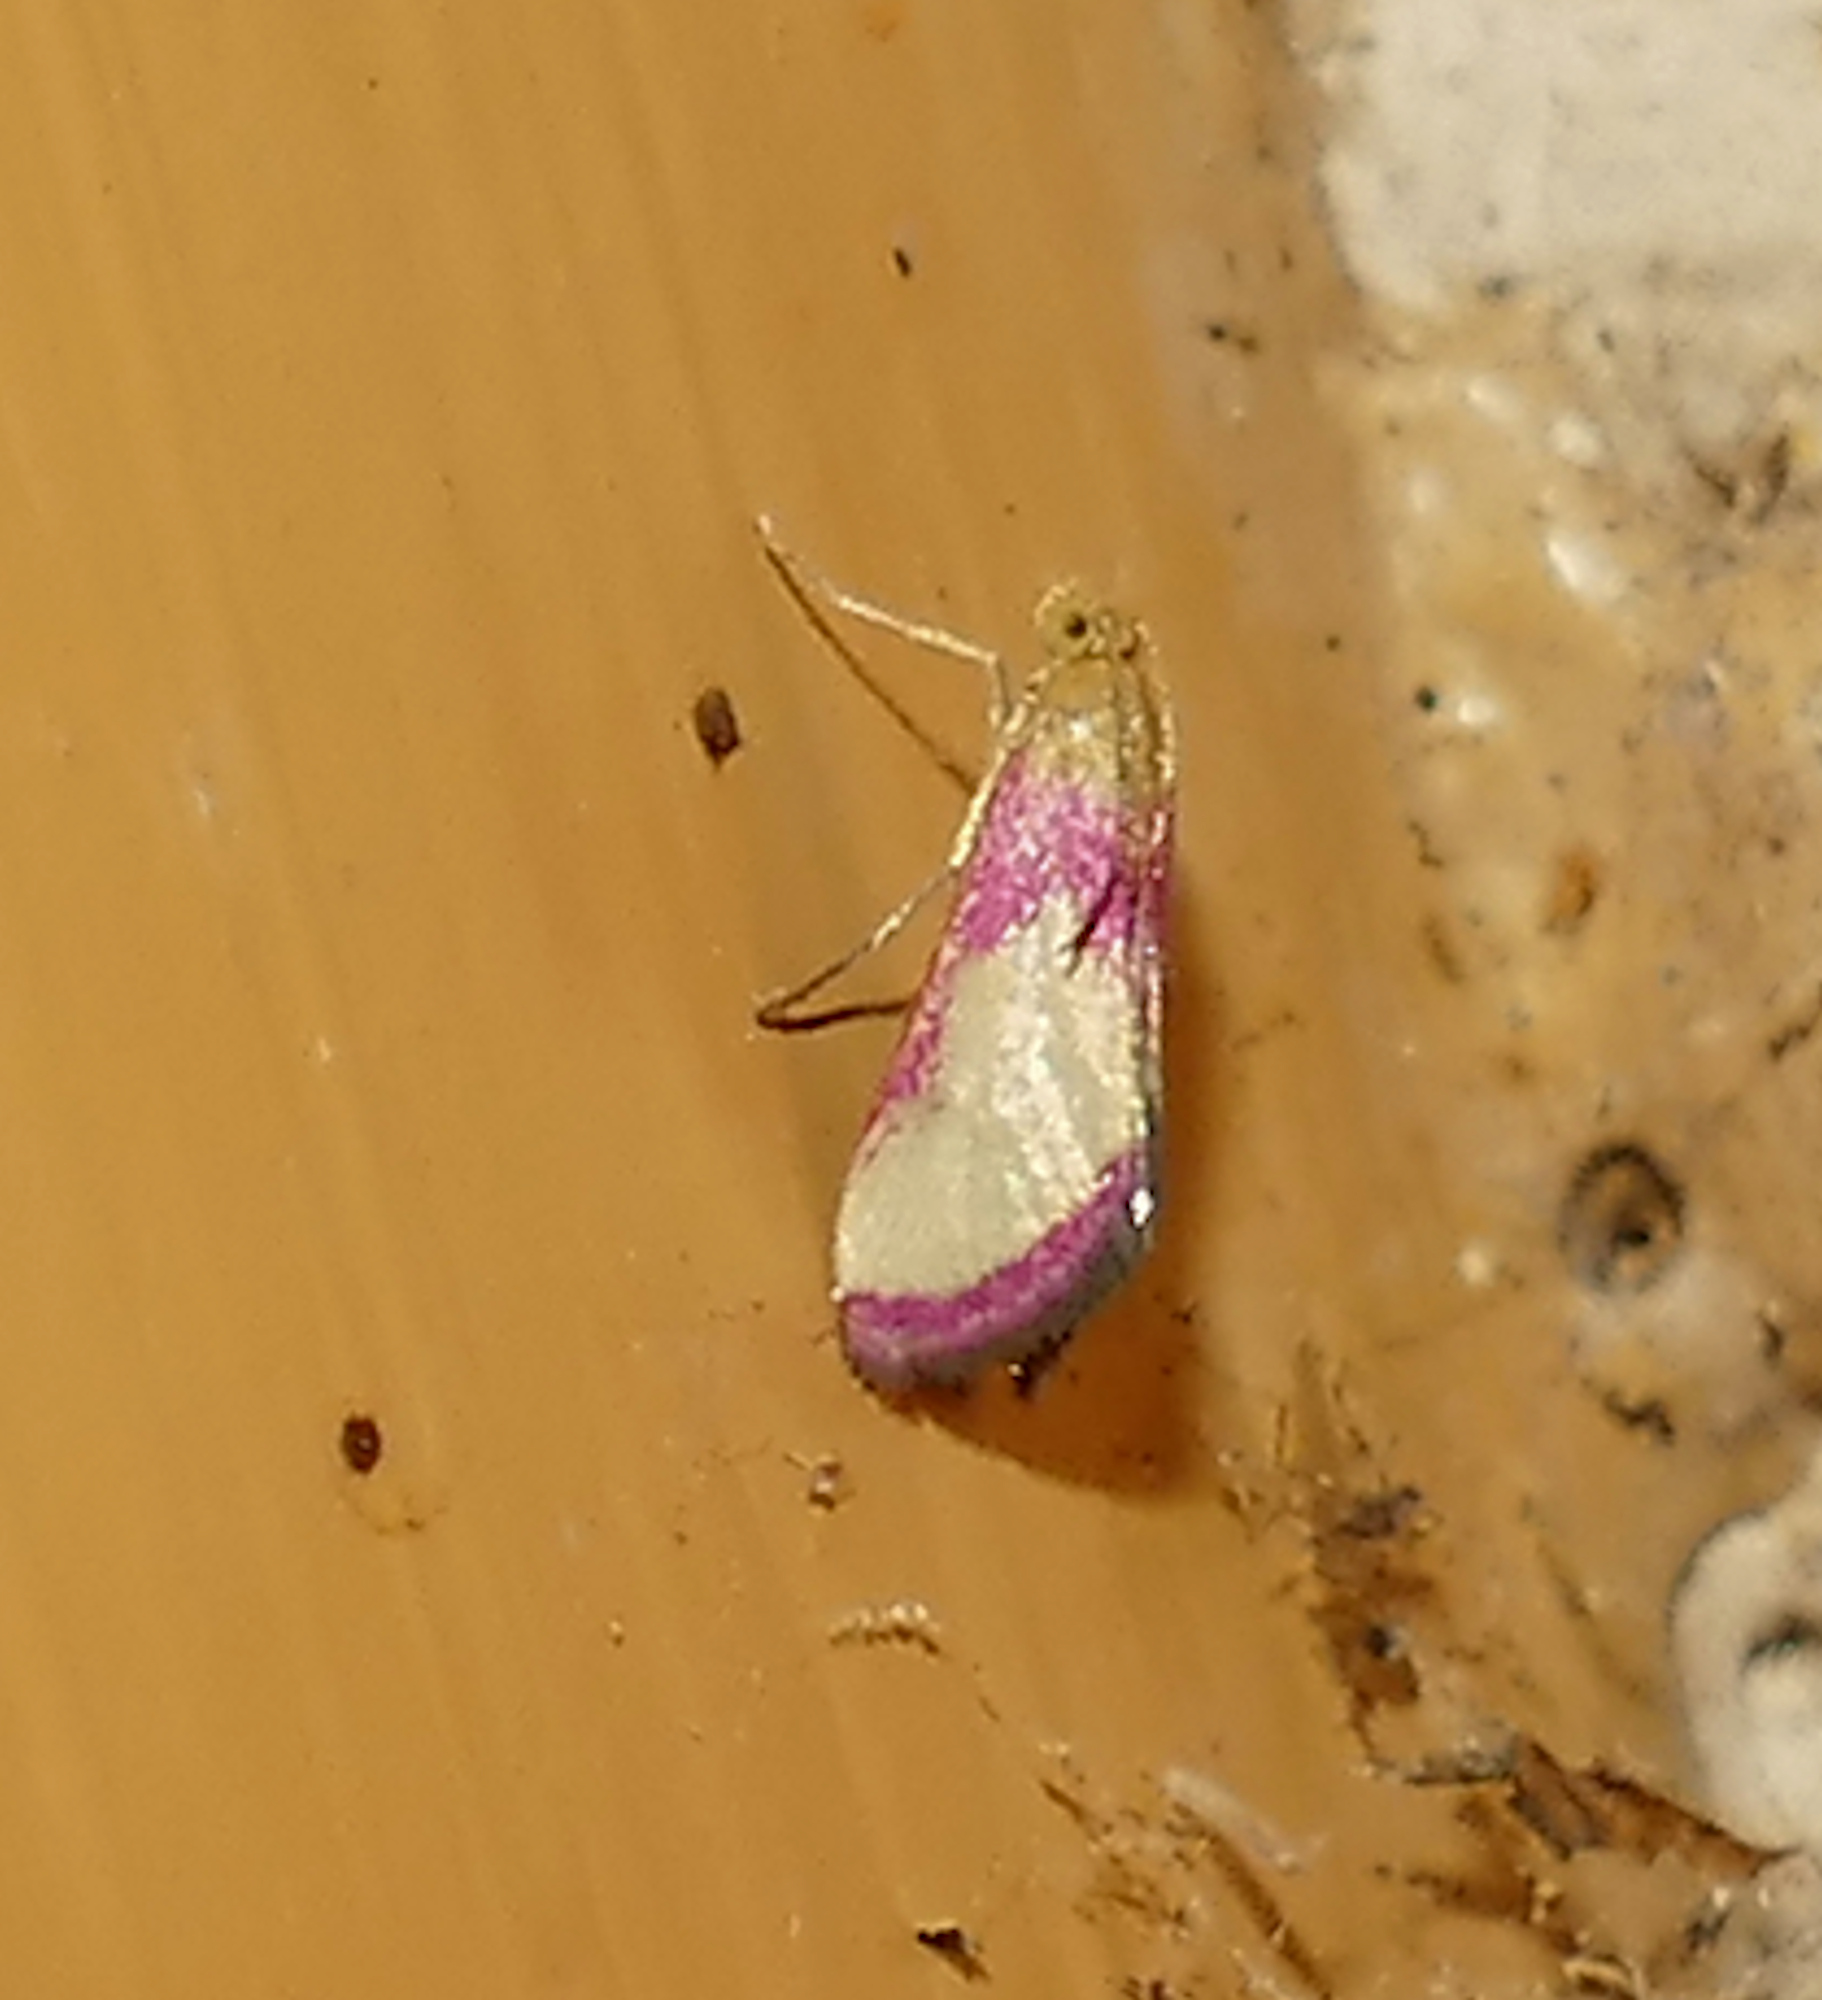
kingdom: Animalia
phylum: Arthropoda
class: Insecta
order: Lepidoptera
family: Crambidae
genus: Mojavia
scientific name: Mojavia achemonalis
